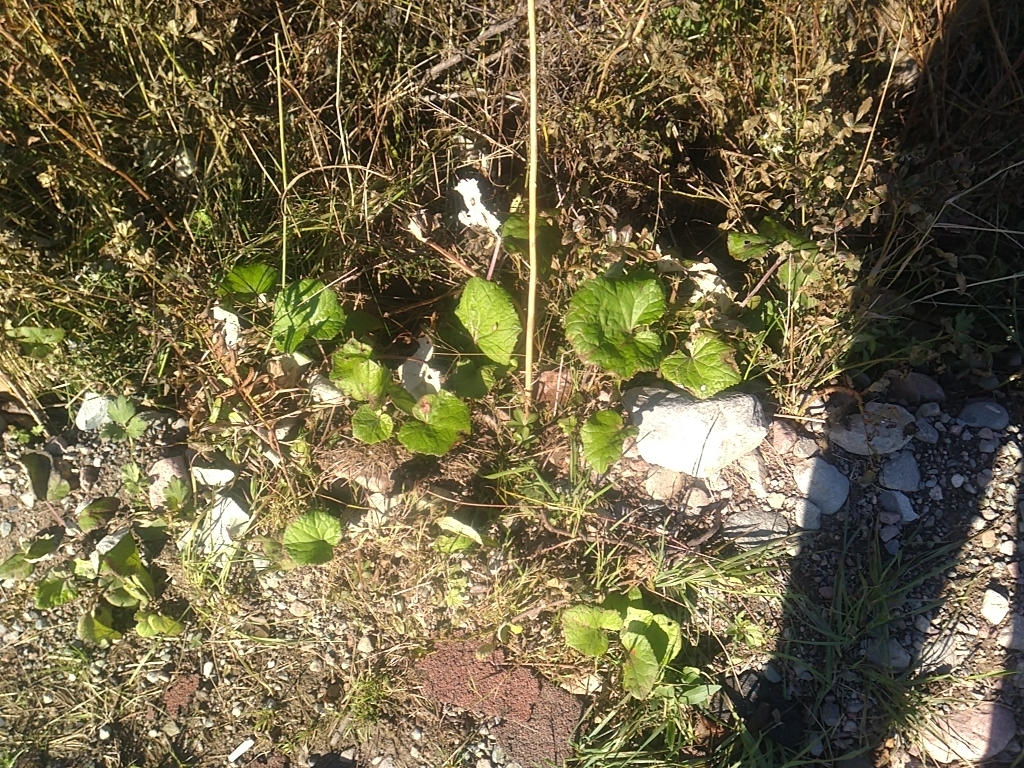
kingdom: Plantae
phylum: Tracheophyta
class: Magnoliopsida
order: Asterales
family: Asteraceae
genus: Tussilago
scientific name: Tussilago farfara
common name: Coltsfoot
